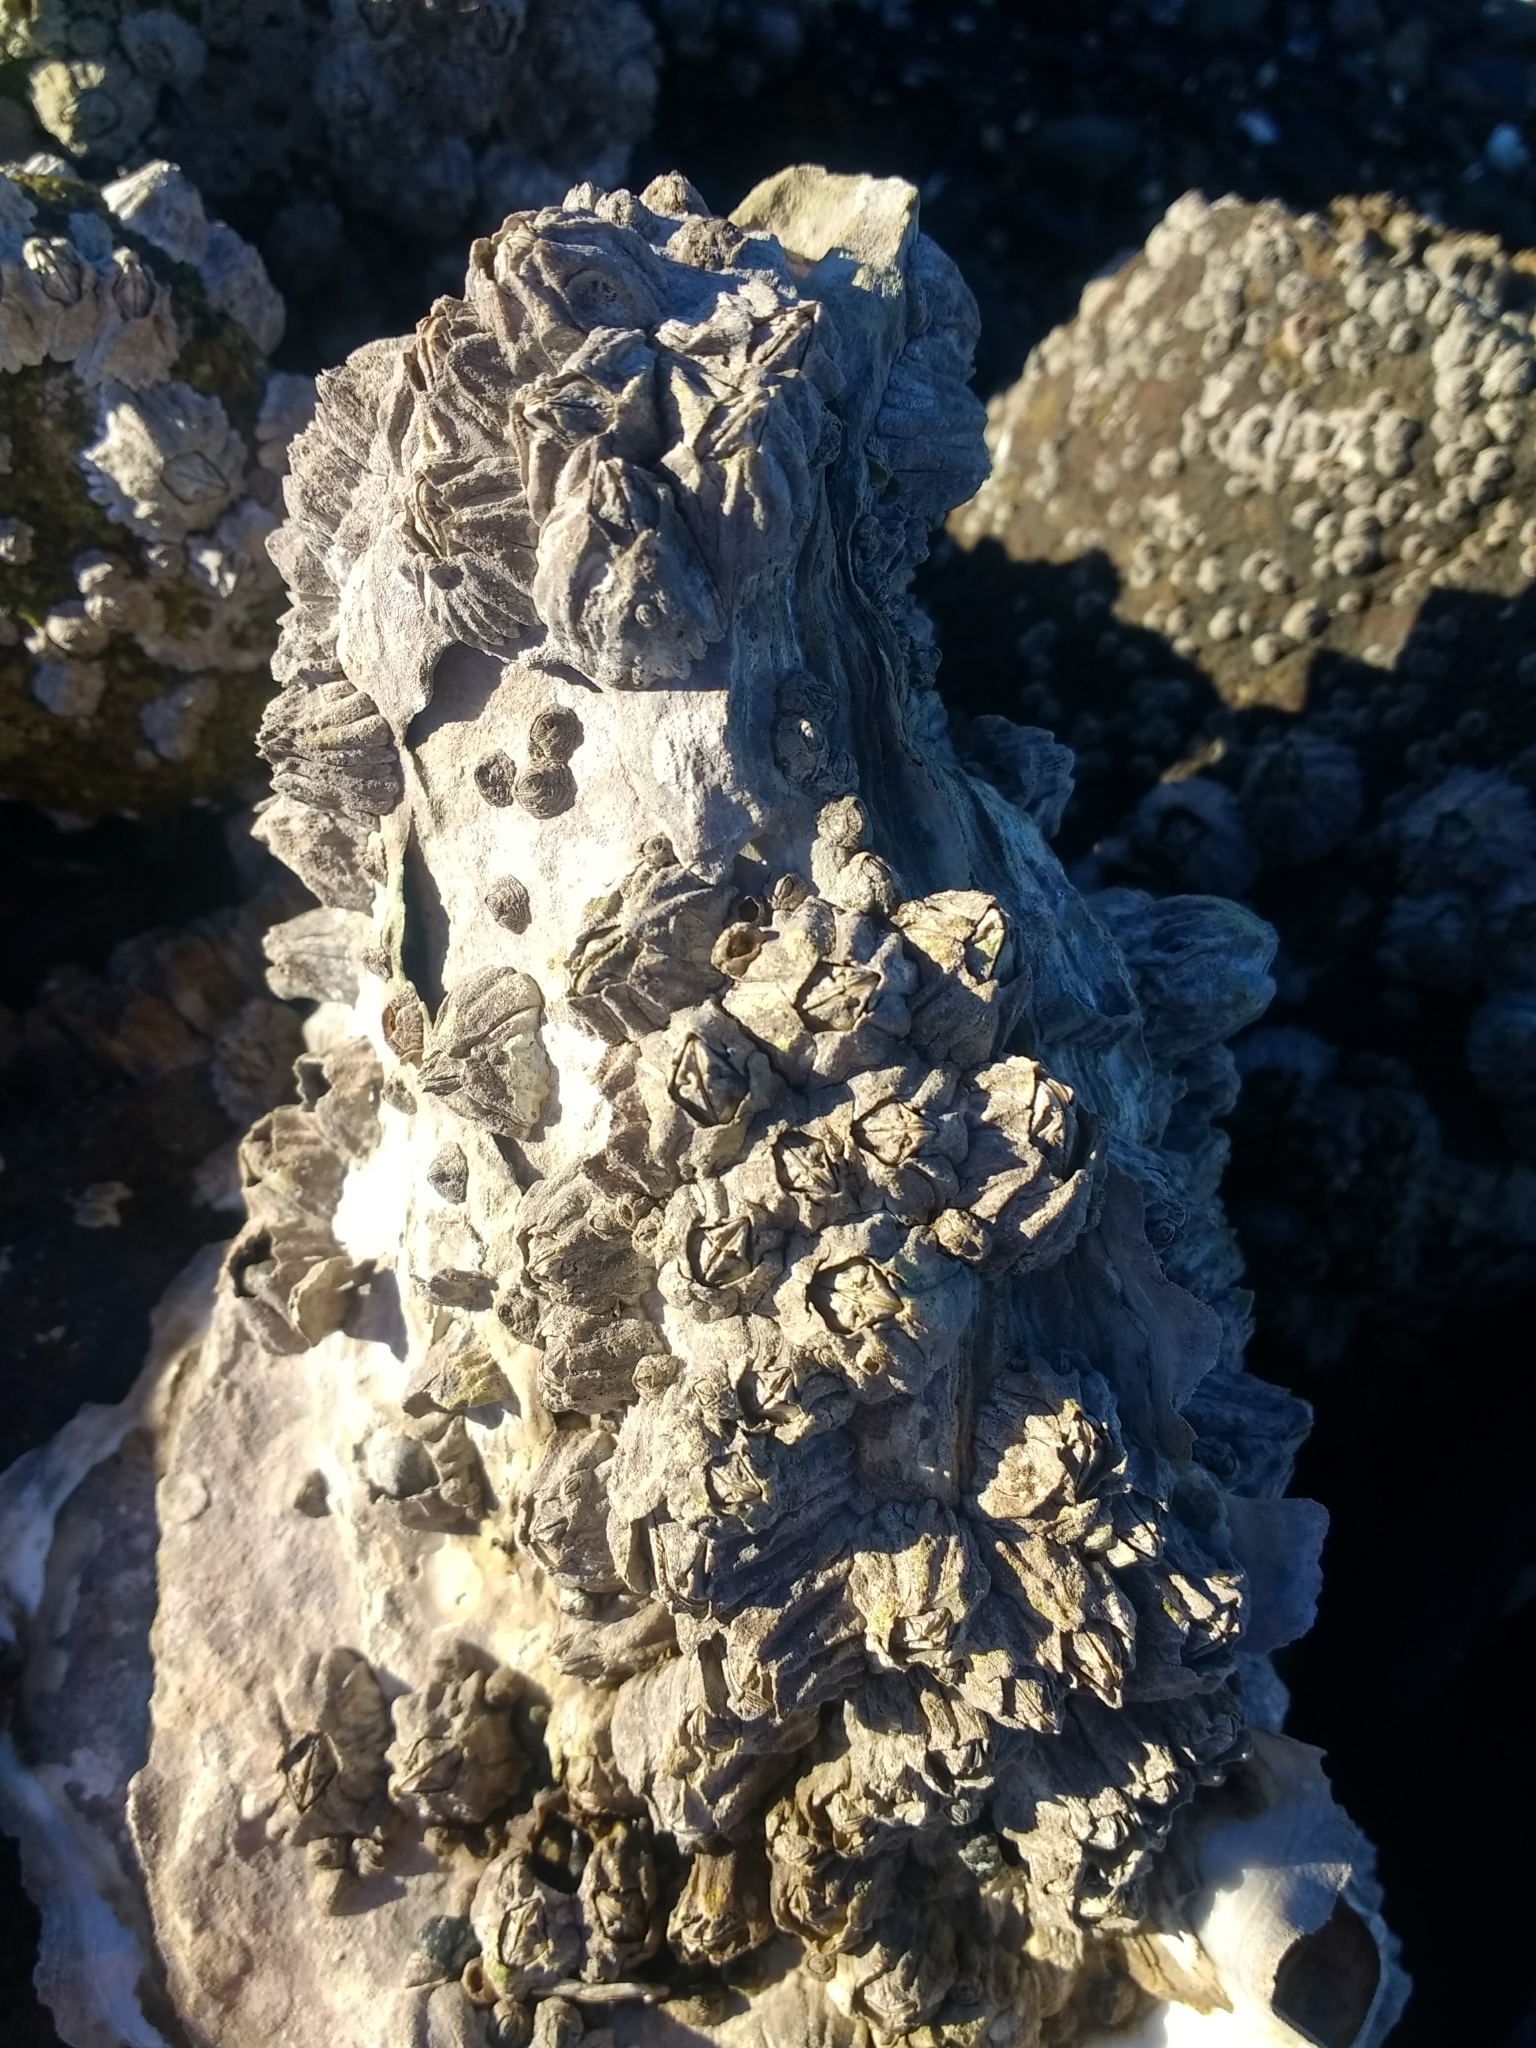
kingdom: Animalia
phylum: Arthropoda
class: Maxillopoda
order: Sessilia
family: Balanidae
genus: Balanus
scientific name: Balanus glandula
